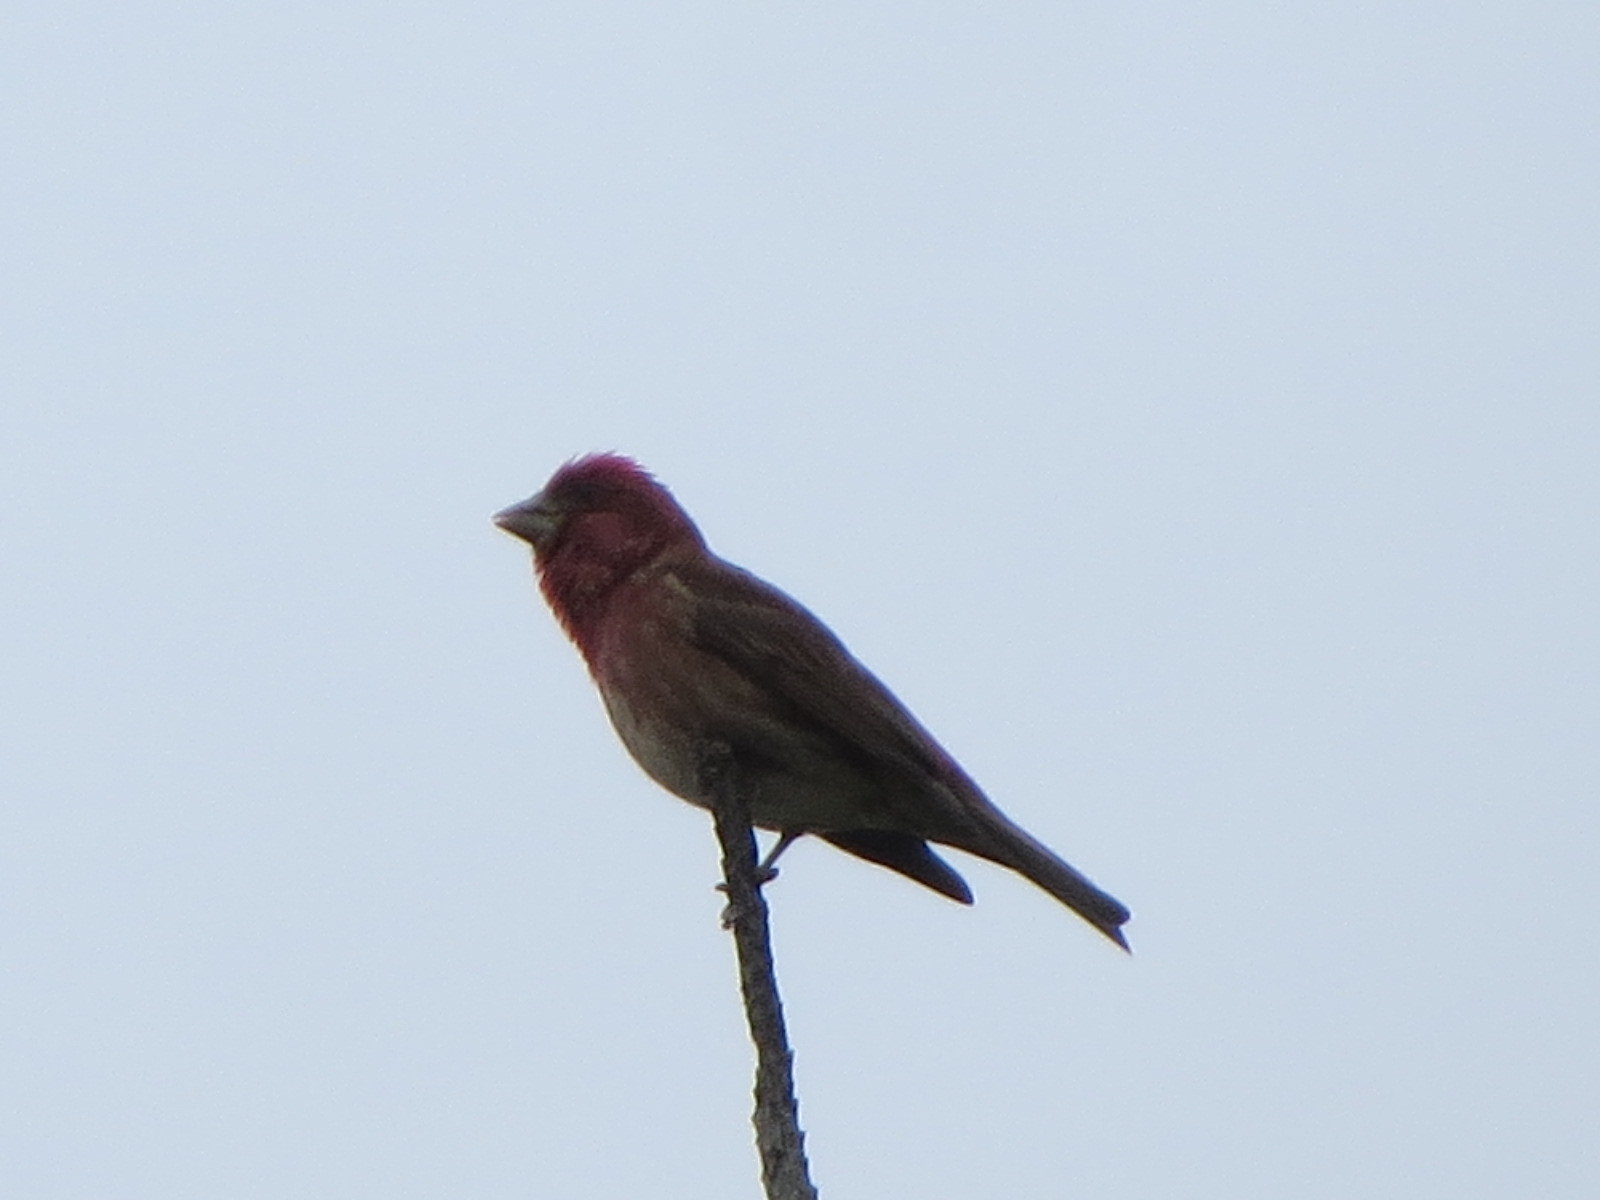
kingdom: Animalia
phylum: Chordata
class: Aves
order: Passeriformes
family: Fringillidae
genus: Haemorhous
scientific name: Haemorhous purpureus
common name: Purple finch
